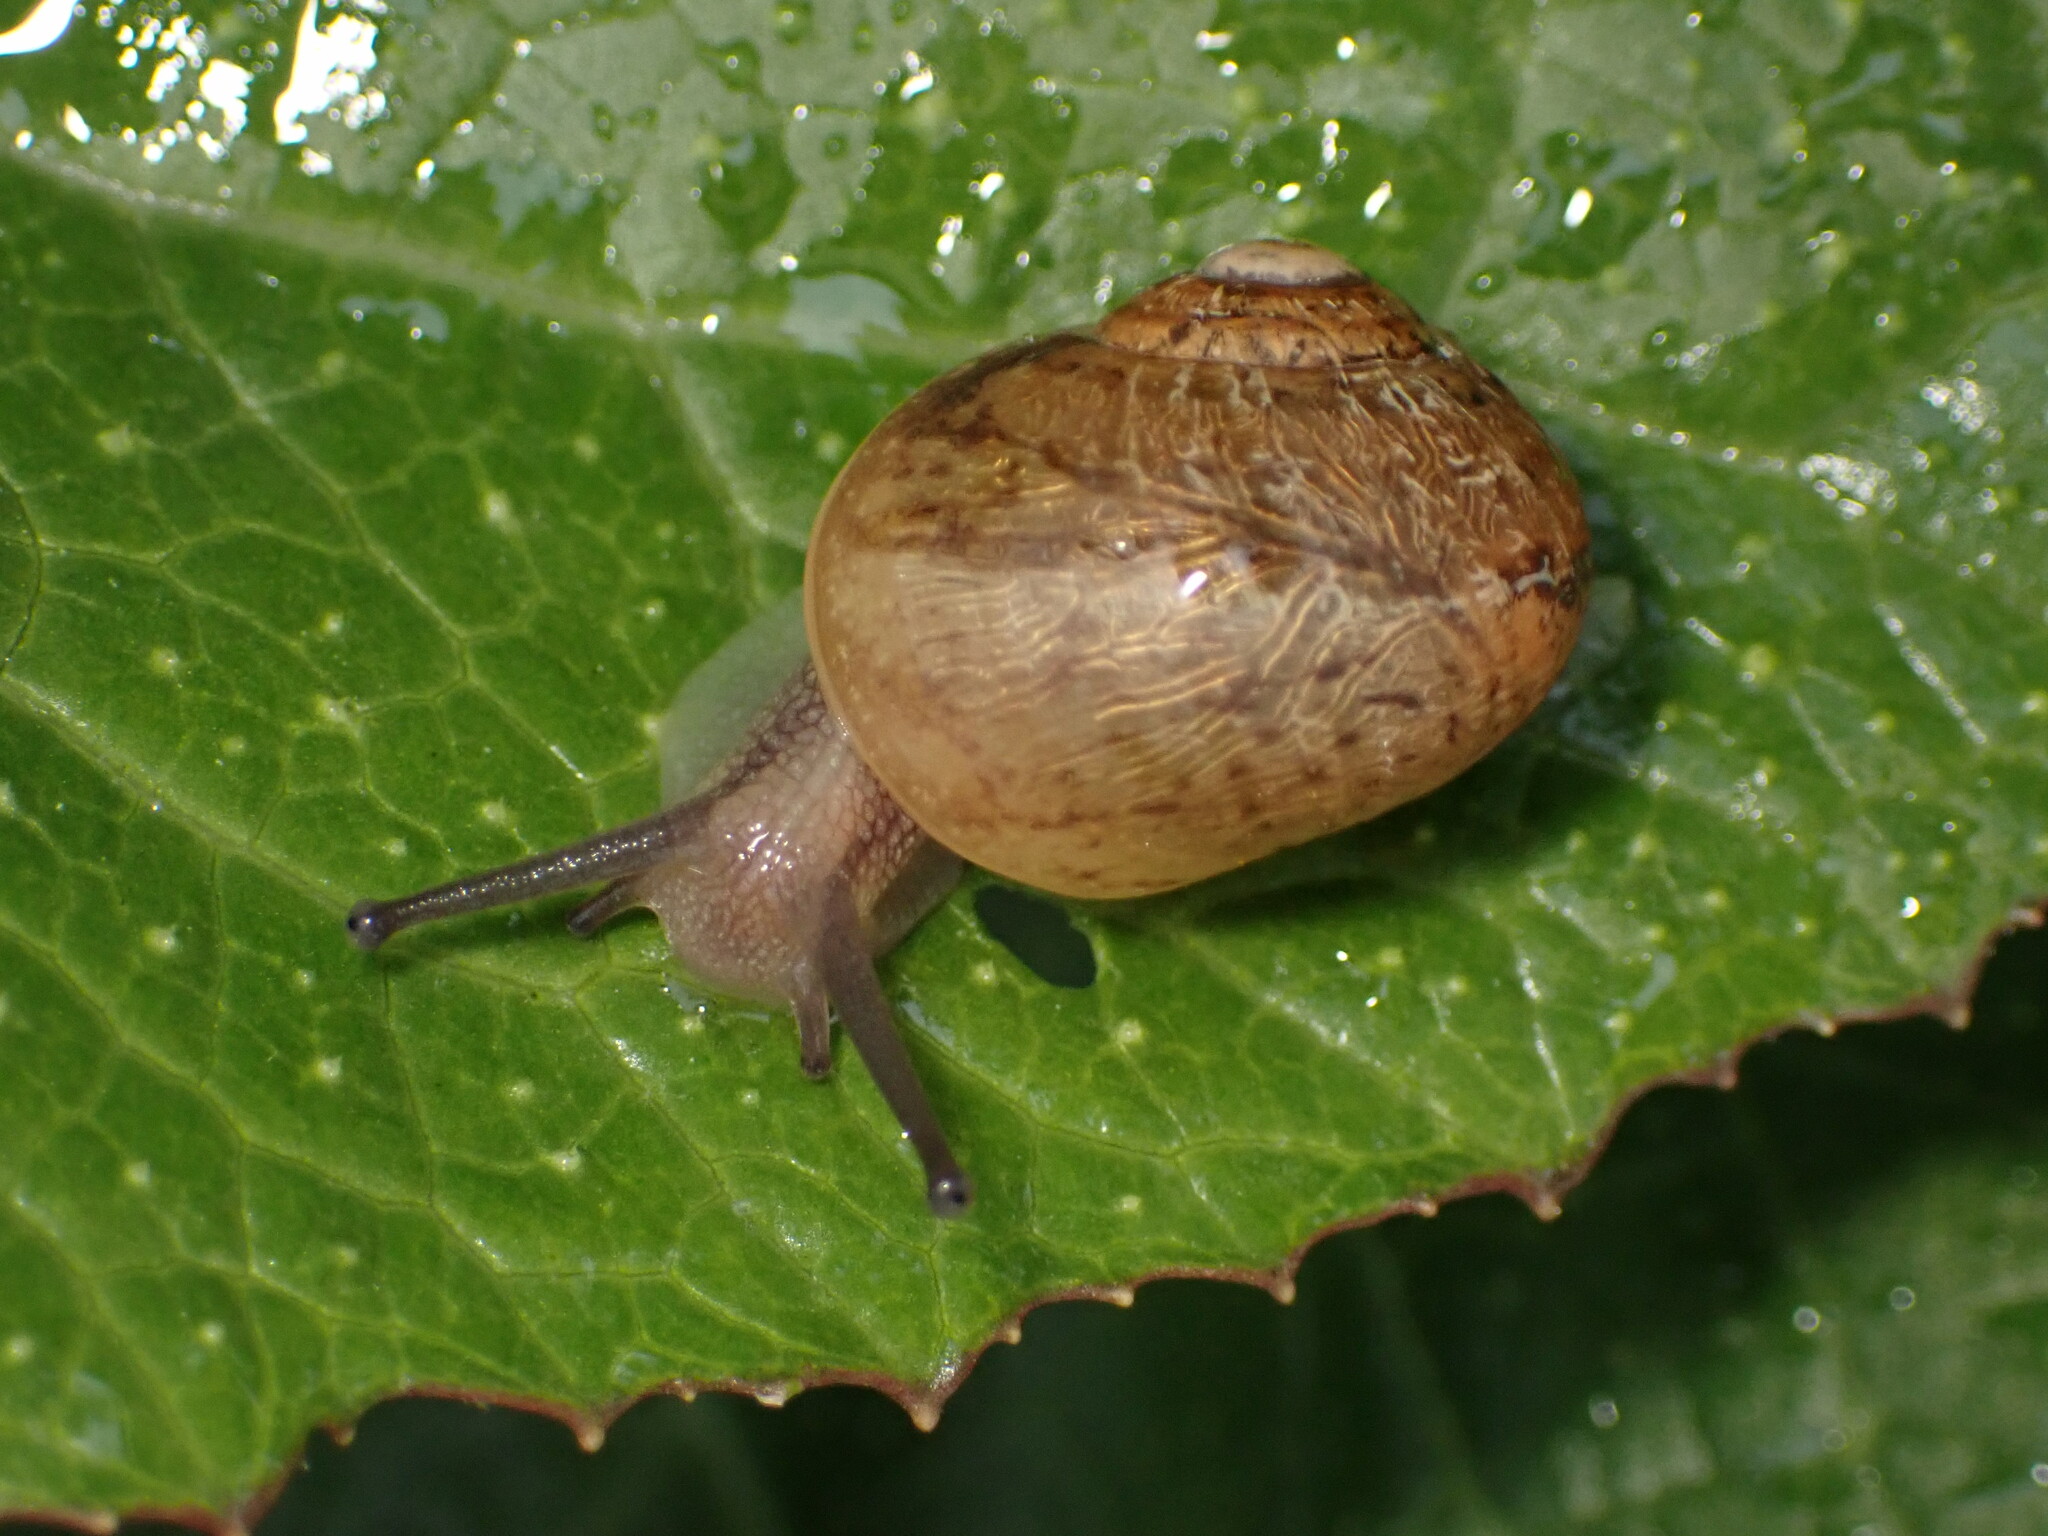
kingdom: Animalia
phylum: Mollusca
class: Gastropoda
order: Stylommatophora
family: Helicidae
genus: Cornu
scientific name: Cornu aspersum
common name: Brown garden snail
